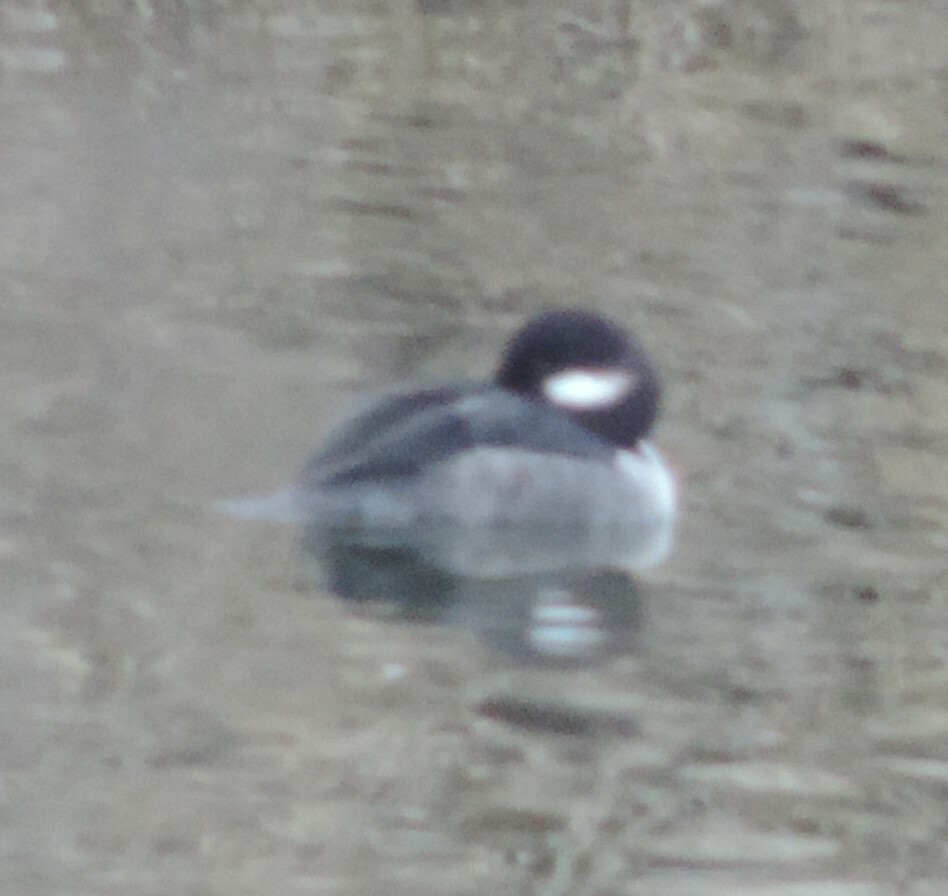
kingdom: Animalia
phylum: Chordata
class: Aves
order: Anseriformes
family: Anatidae
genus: Bucephala
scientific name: Bucephala albeola
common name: Bufflehead
